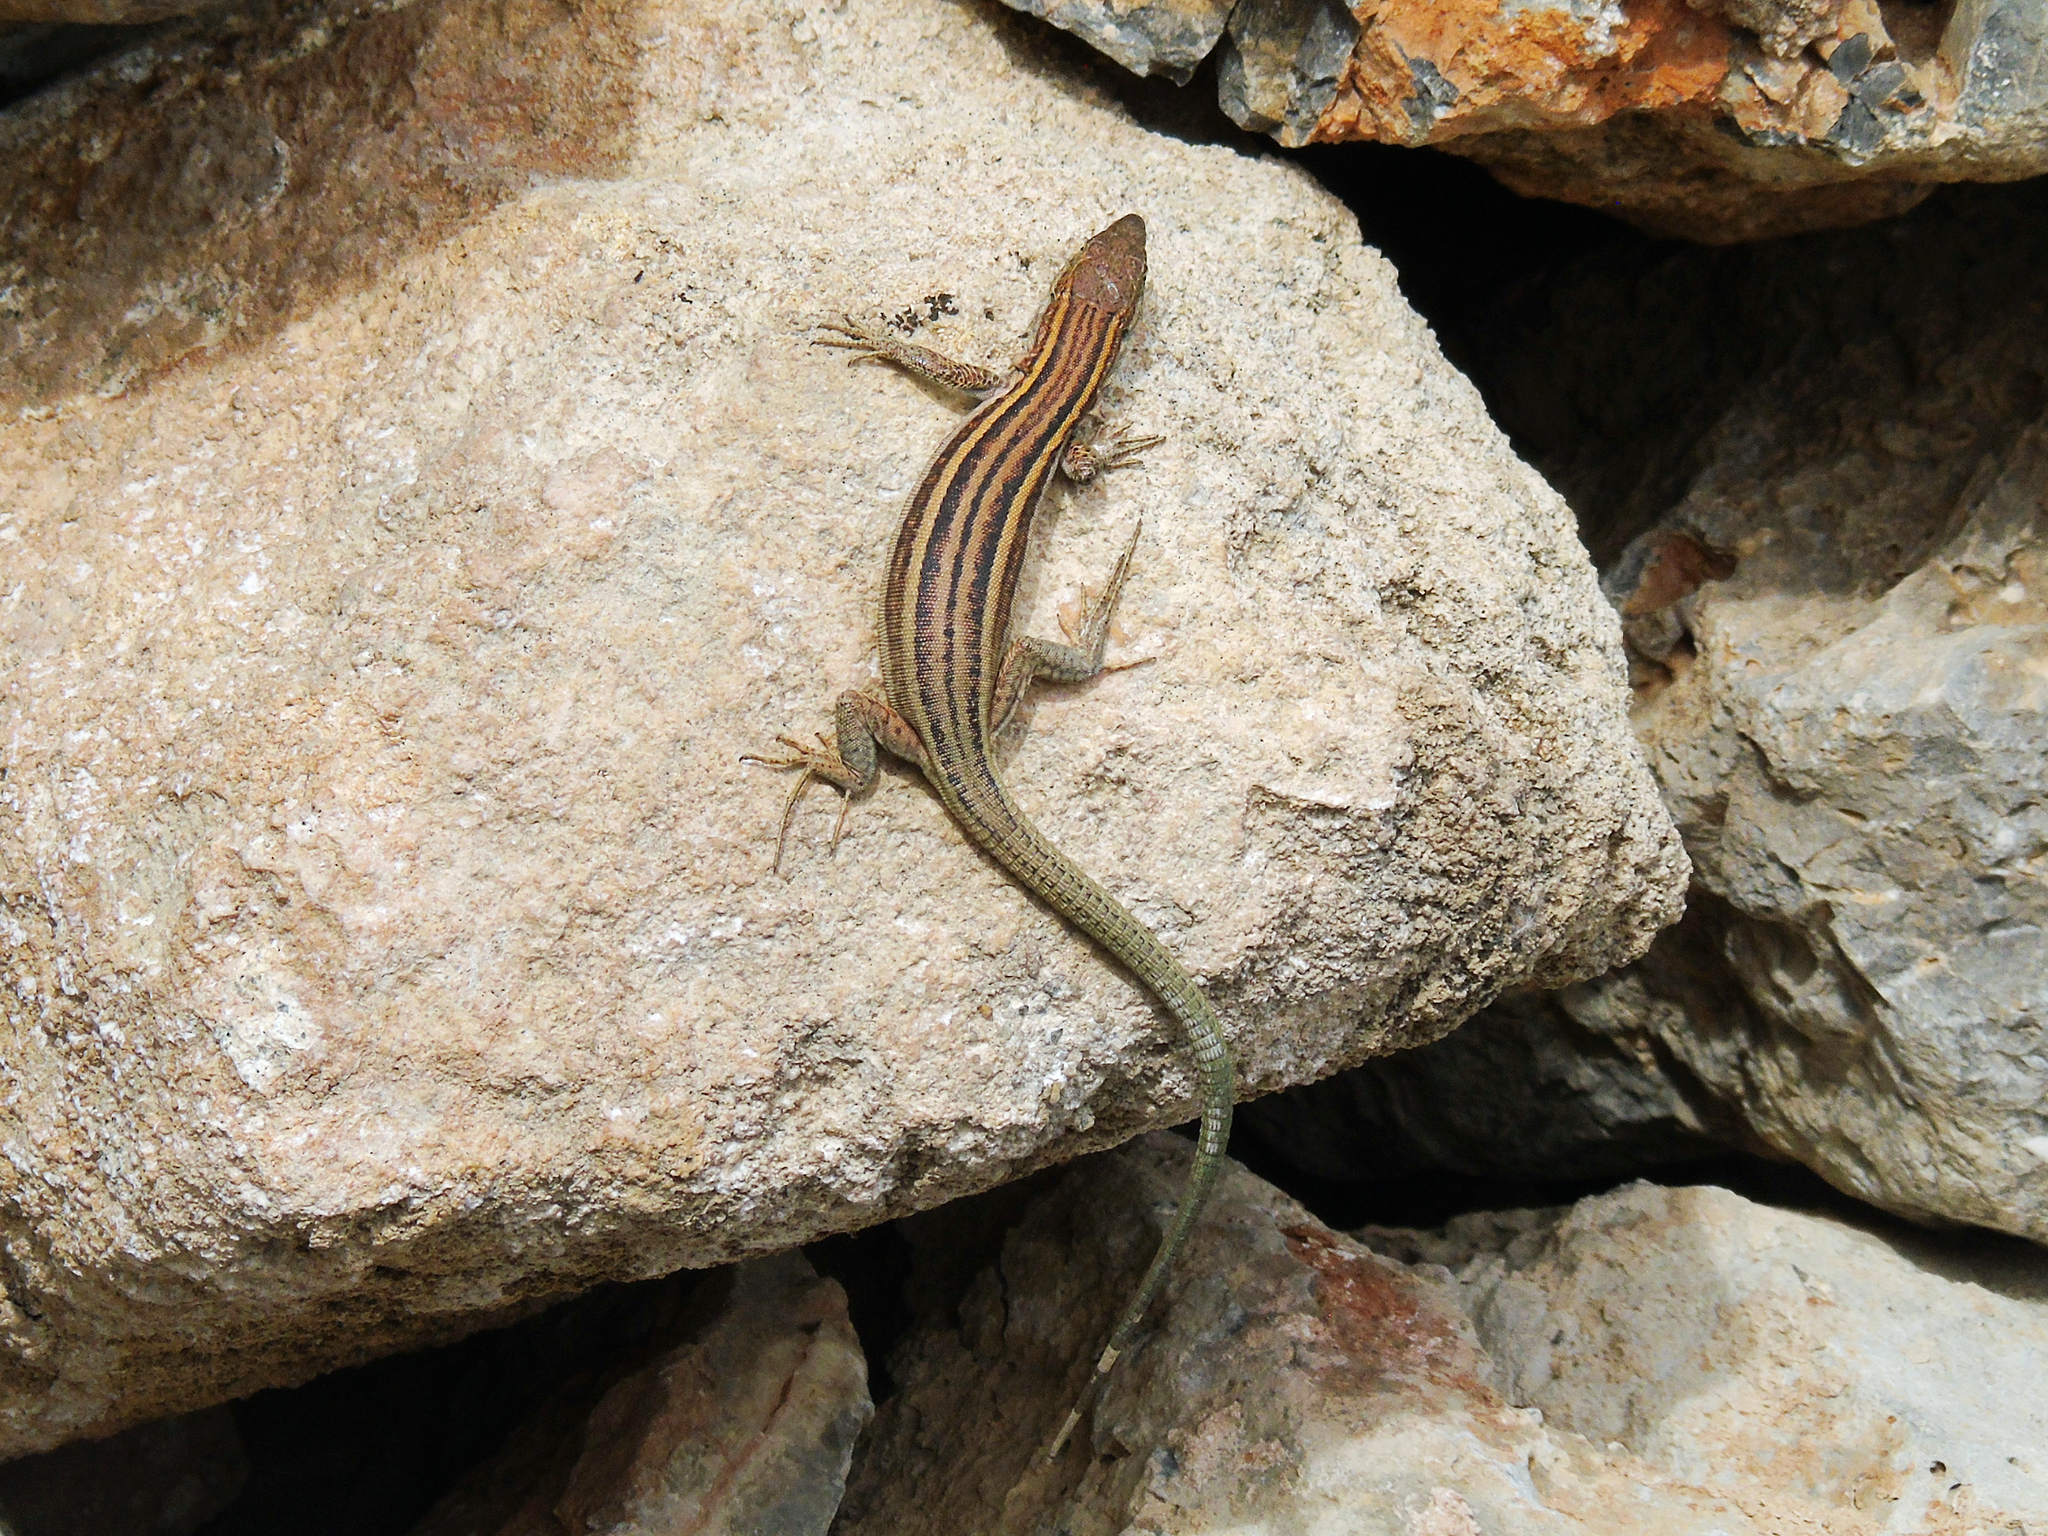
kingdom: Animalia
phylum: Chordata
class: Squamata
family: Lacertidae
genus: Podarcis
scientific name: Podarcis peloponnesiacus
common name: Peloponnese wall lizard
